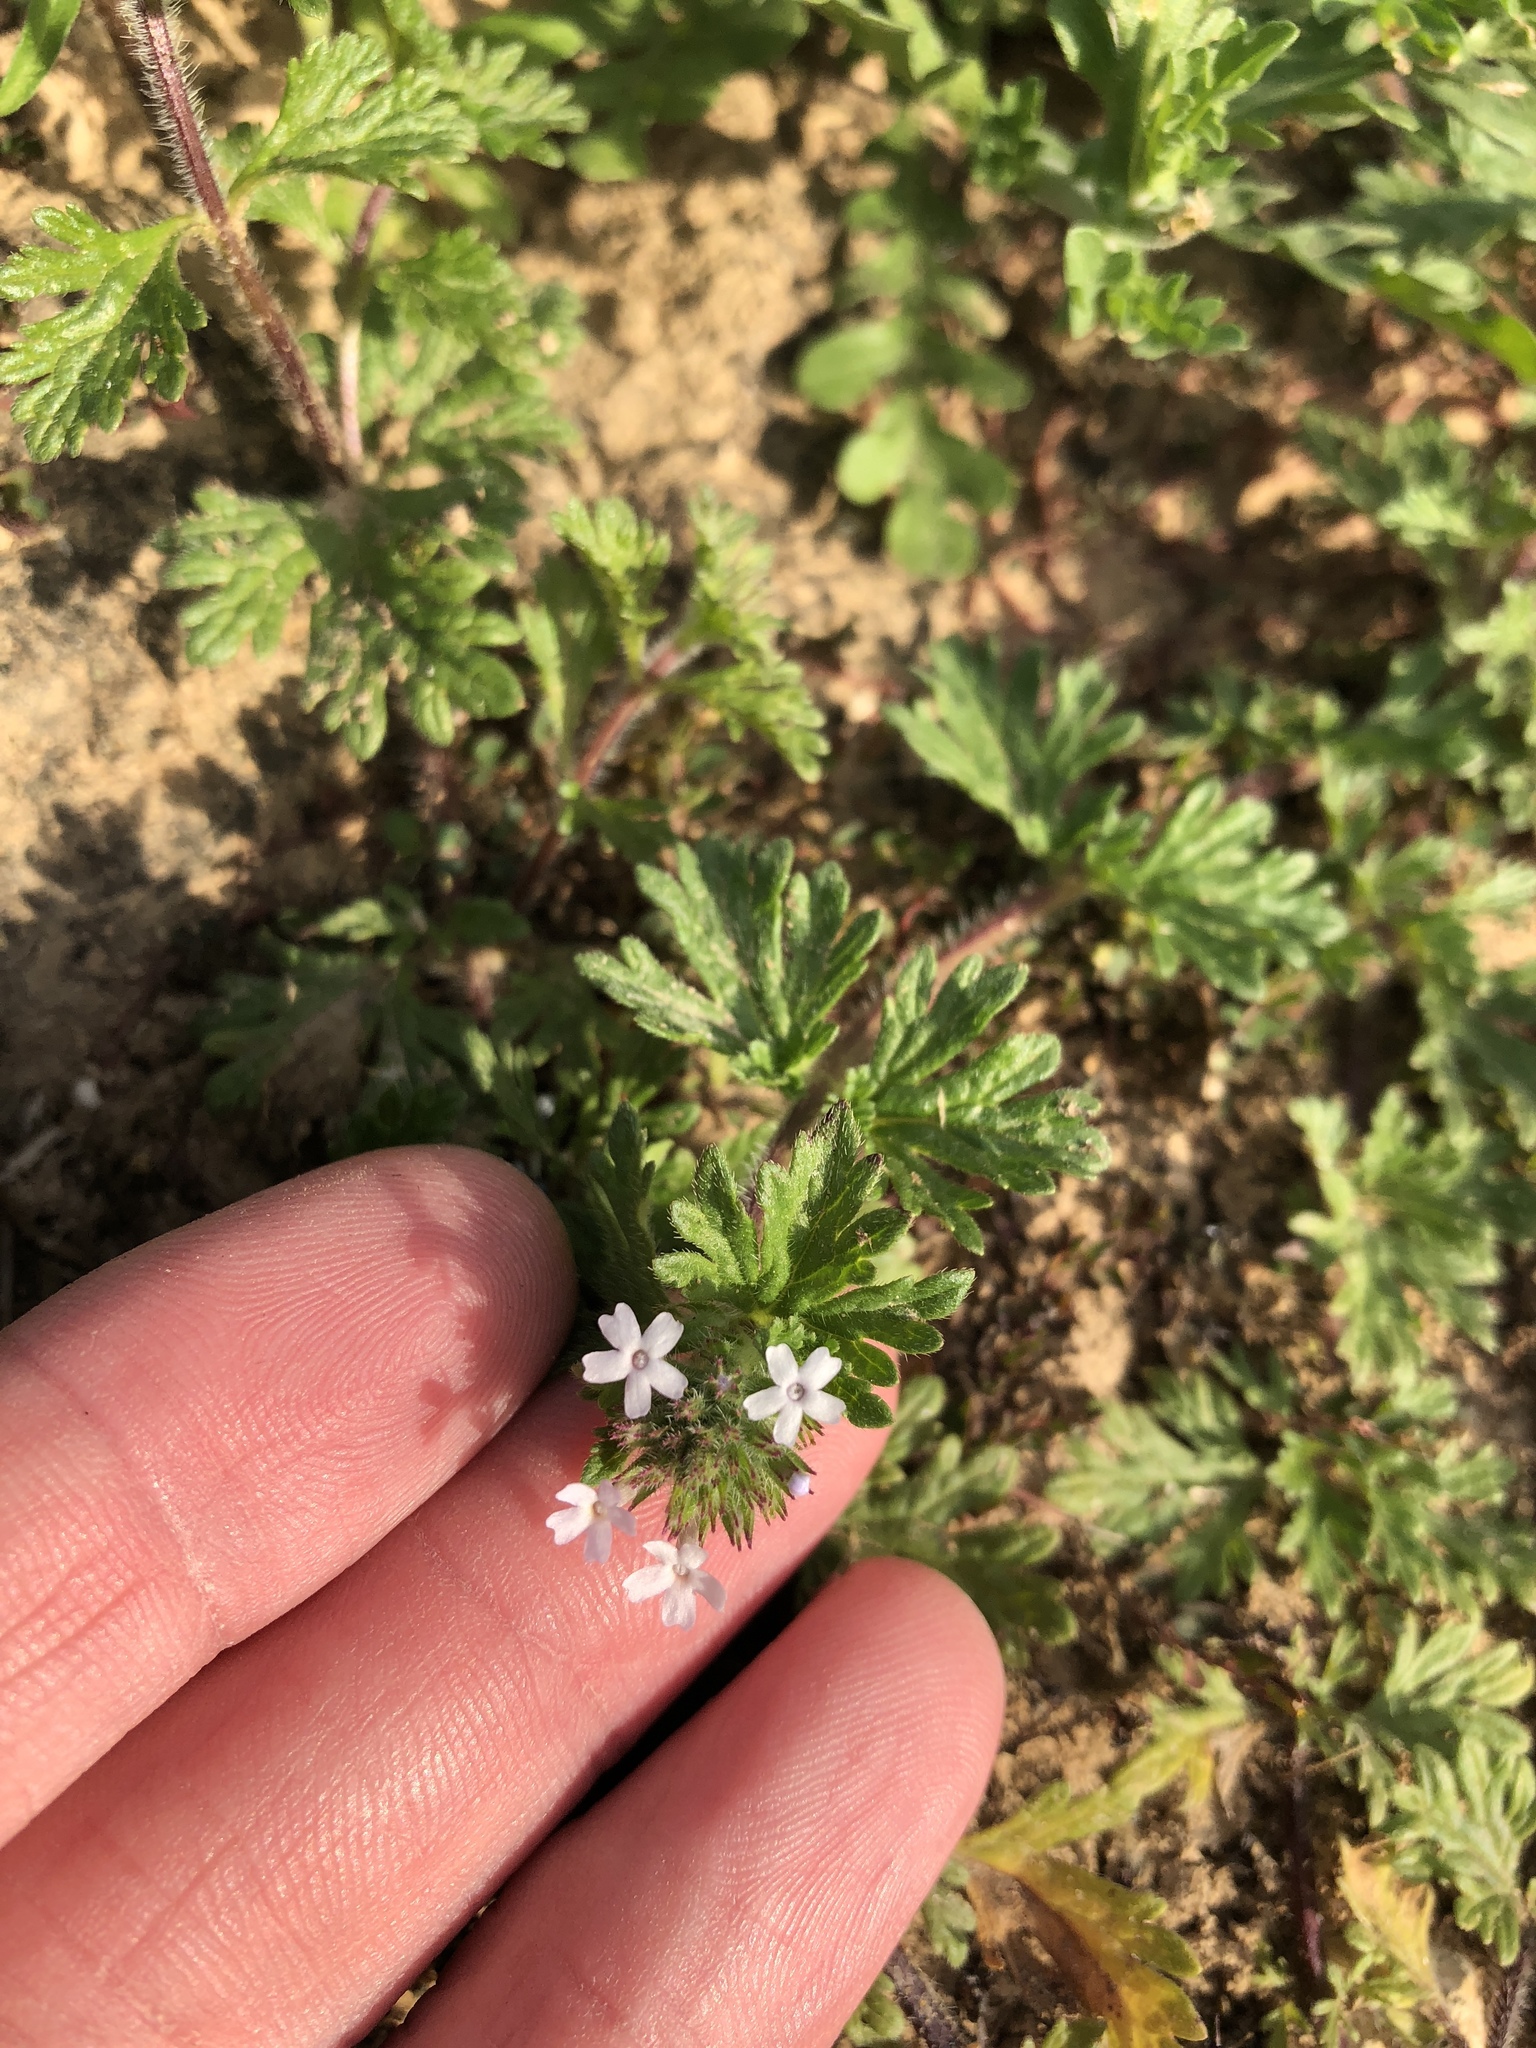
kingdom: Plantae
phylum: Tracheophyta
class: Magnoliopsida
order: Lamiales
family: Verbenaceae
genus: Verbena
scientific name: Verbena pumila
